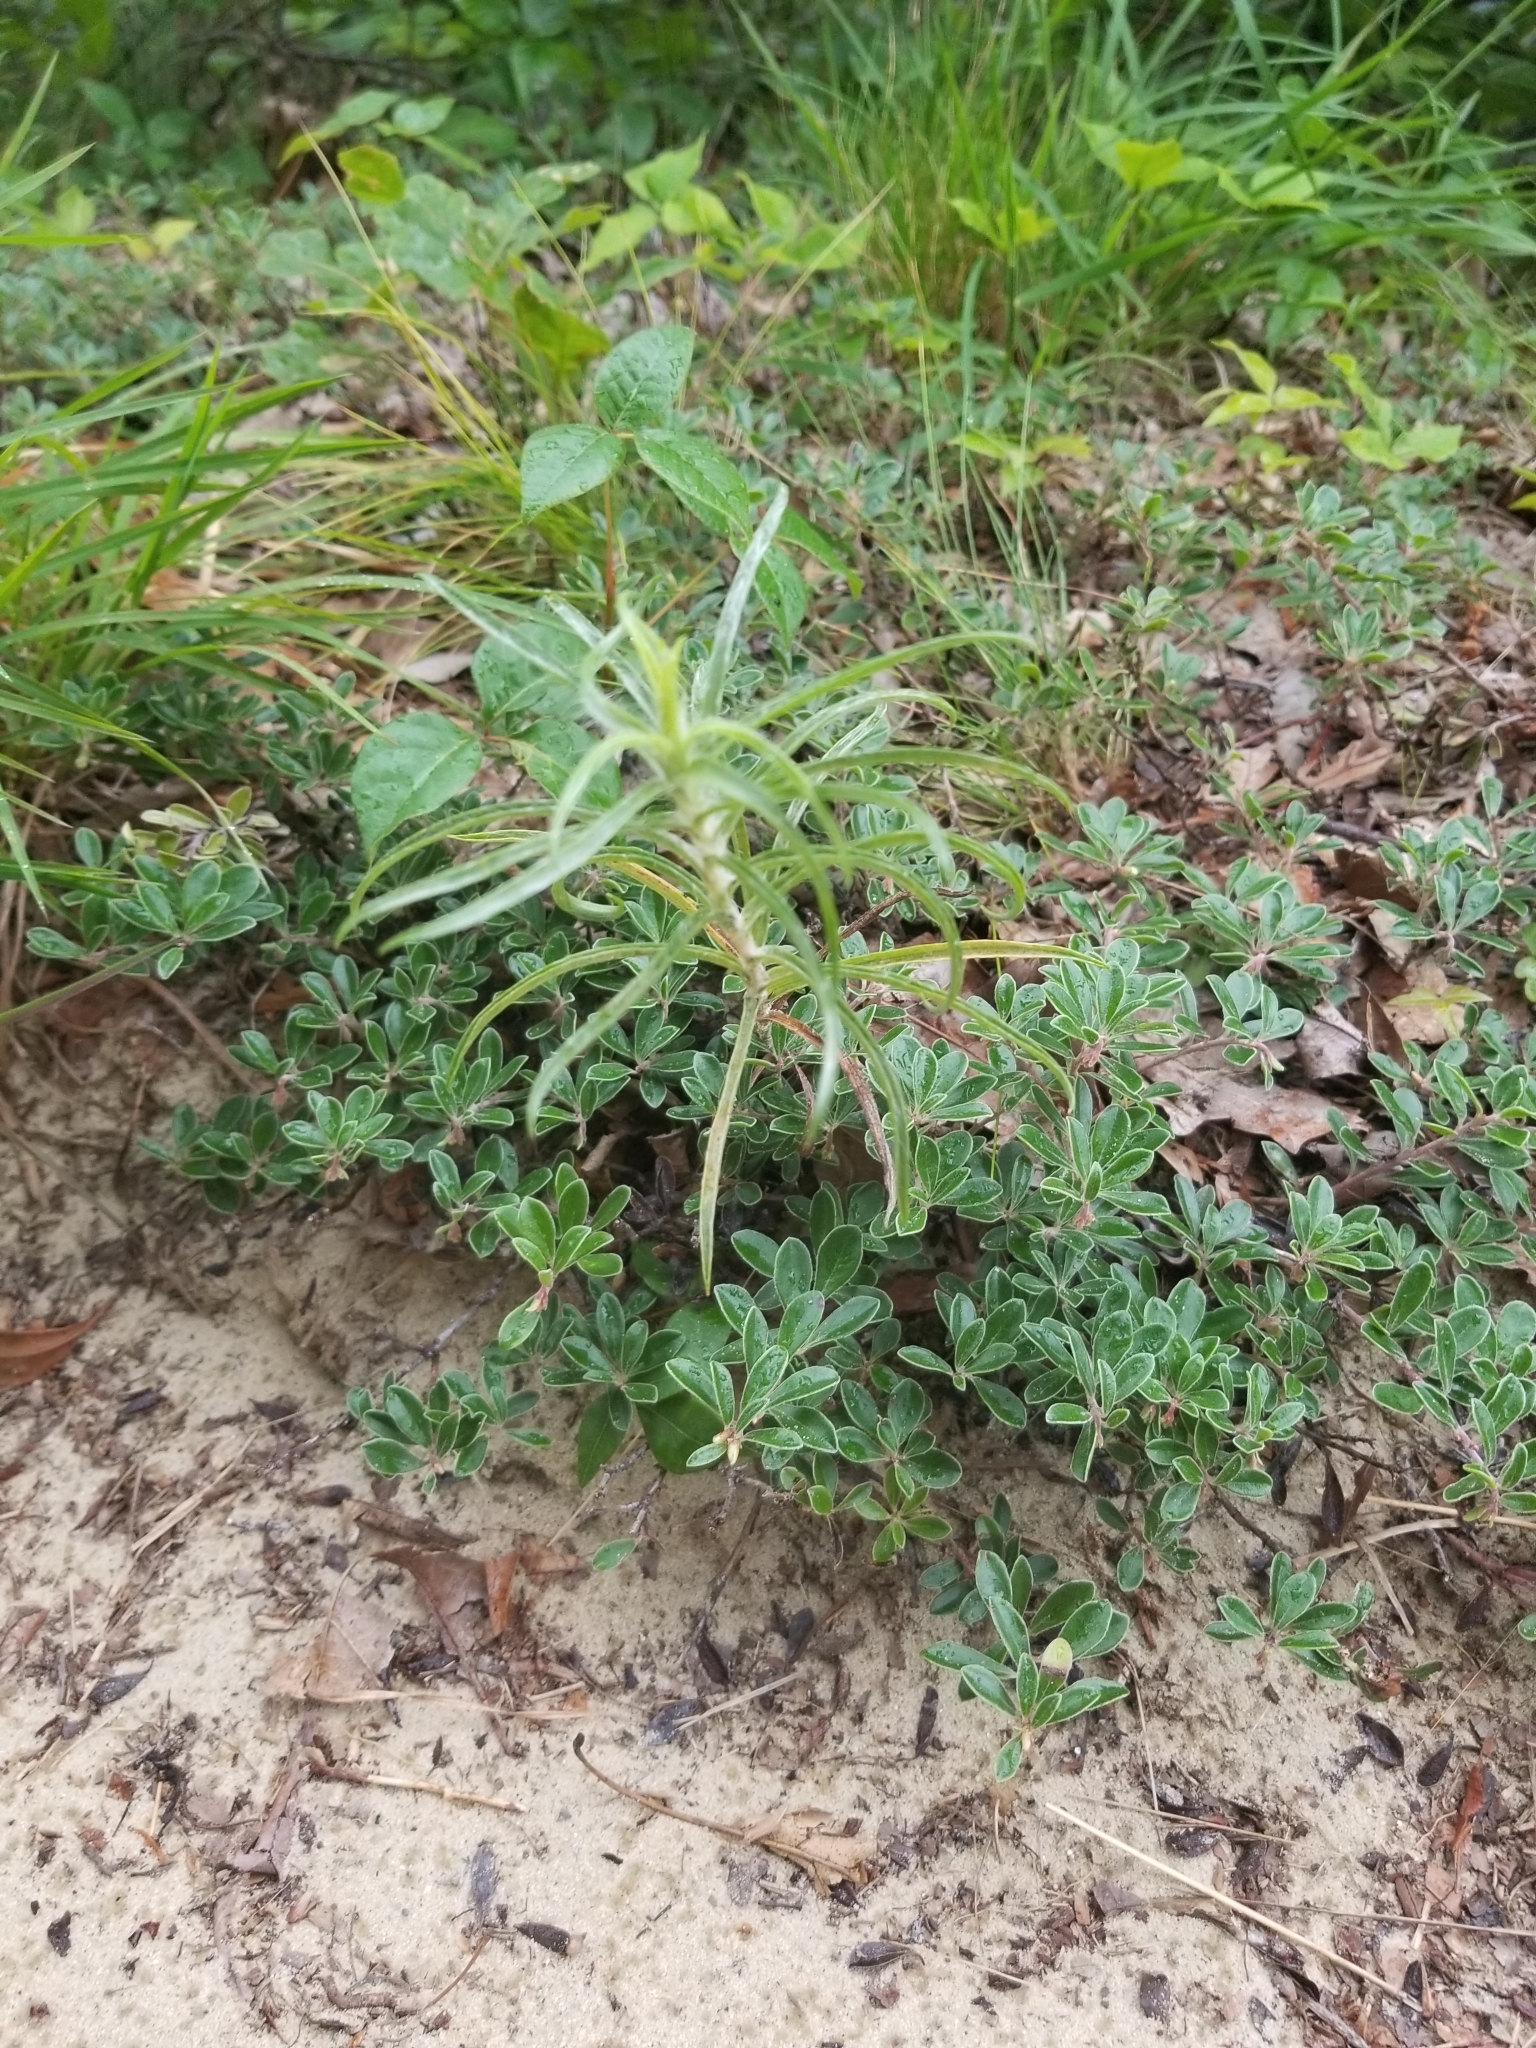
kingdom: Plantae
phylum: Tracheophyta
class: Magnoliopsida
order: Asterales
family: Asteraceae
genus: Pityopsis
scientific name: Pityopsis falcata
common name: Sickle-leaved goldenaster
